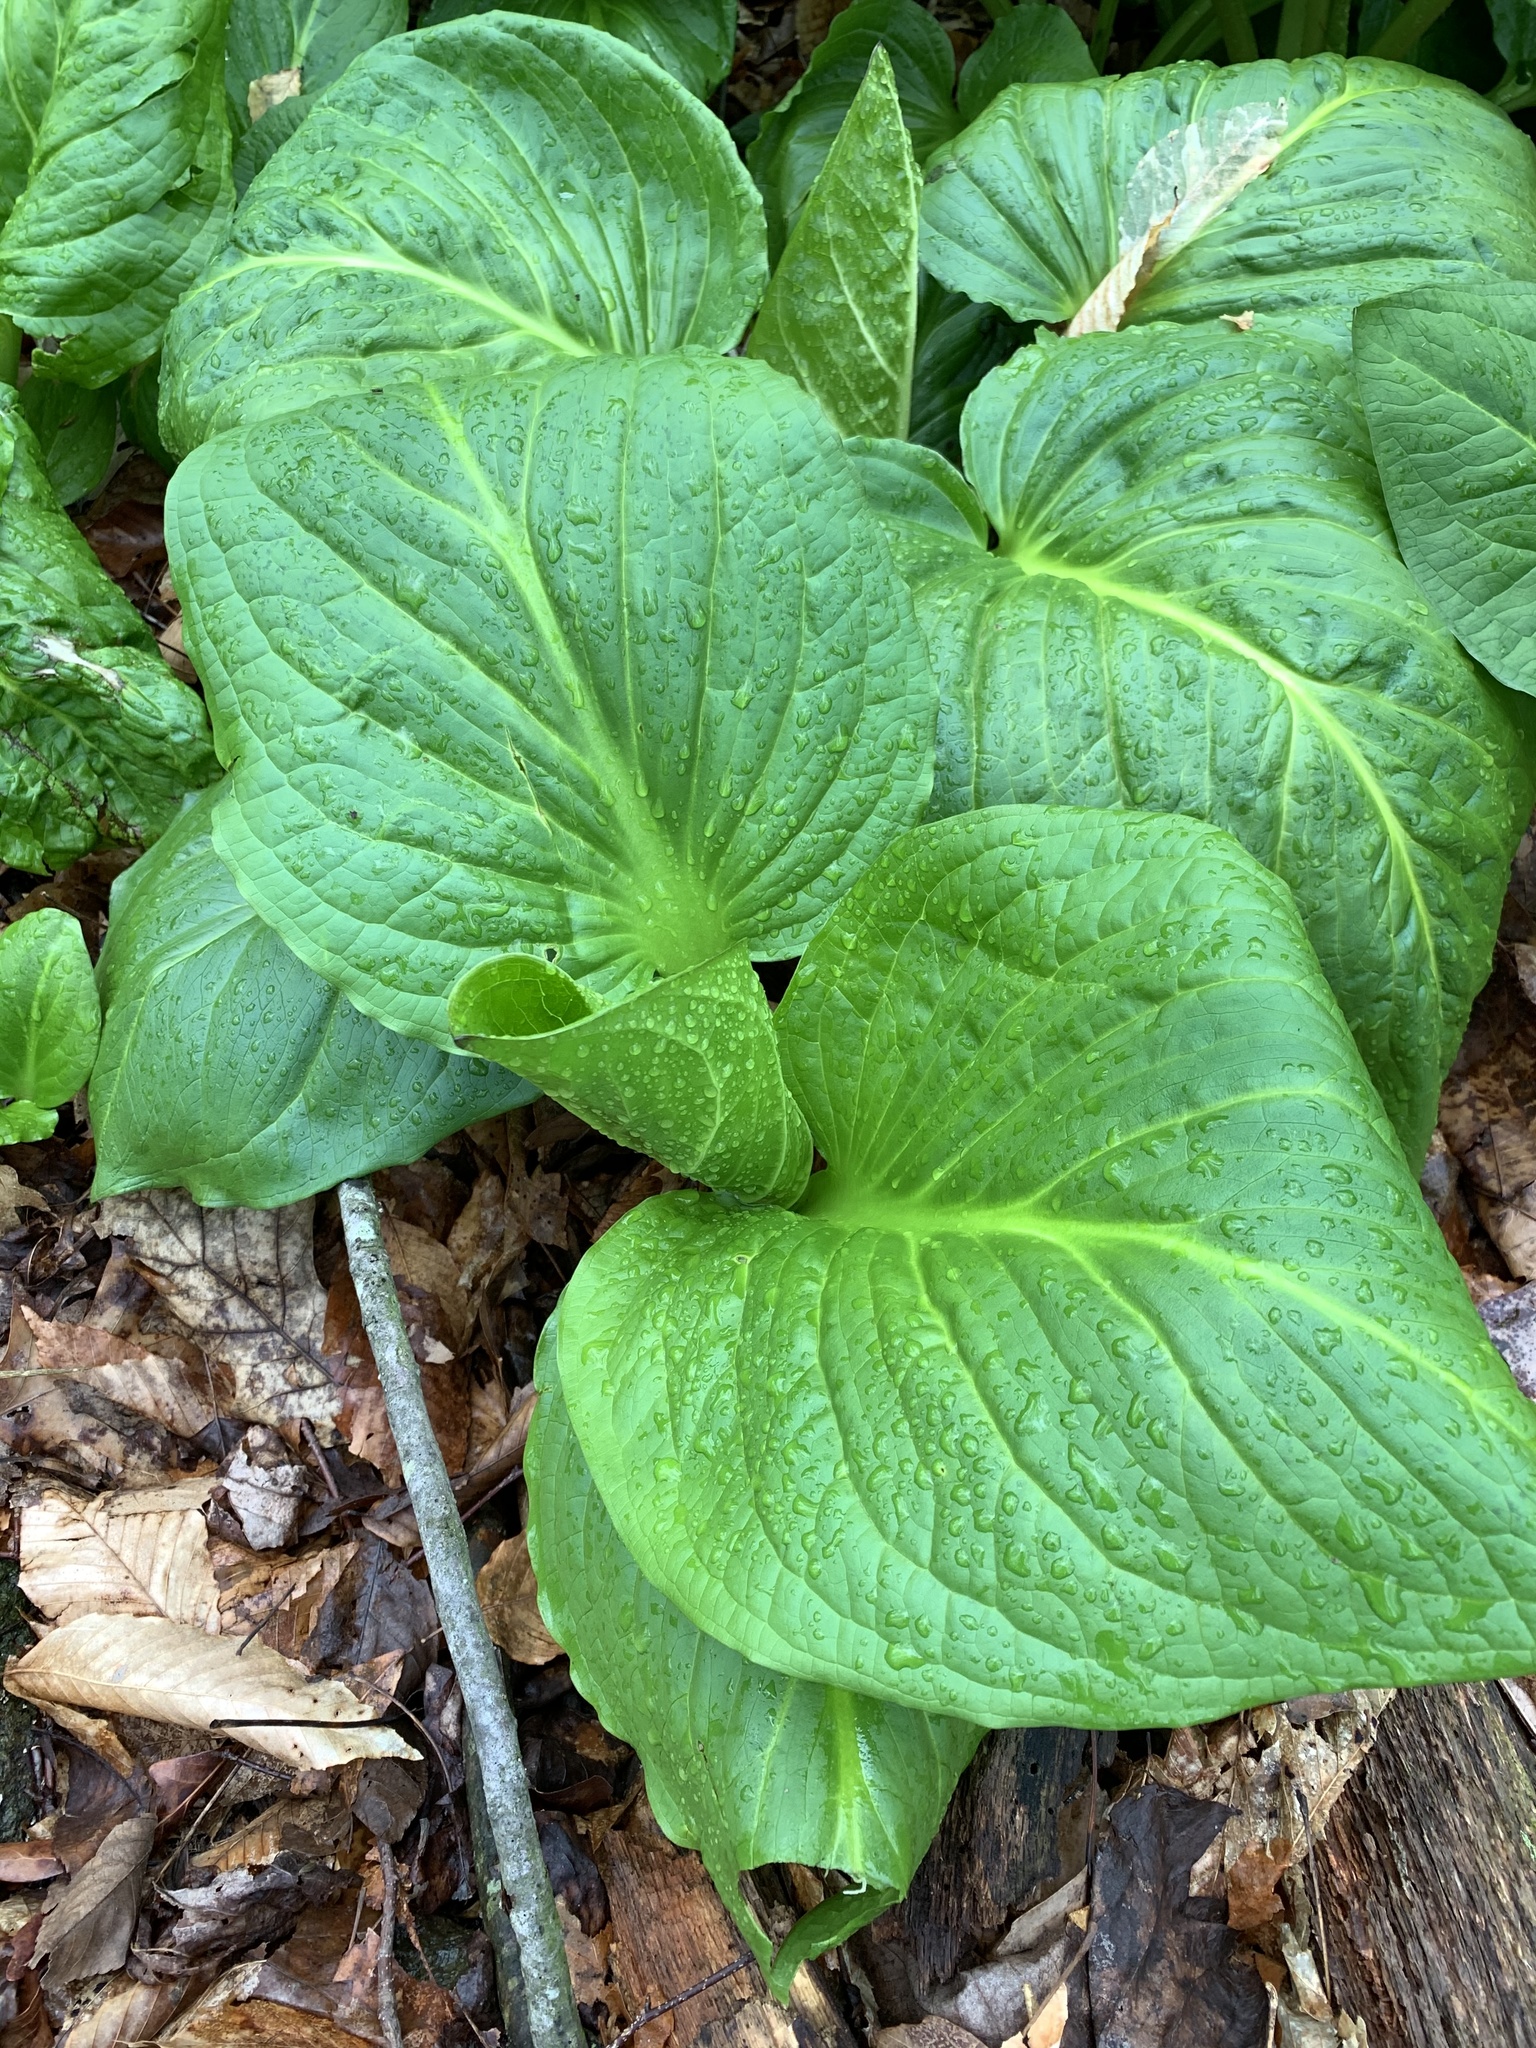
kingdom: Plantae
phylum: Tracheophyta
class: Liliopsida
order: Alismatales
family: Araceae
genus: Symplocarpus
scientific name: Symplocarpus foetidus
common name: Eastern skunk cabbage
